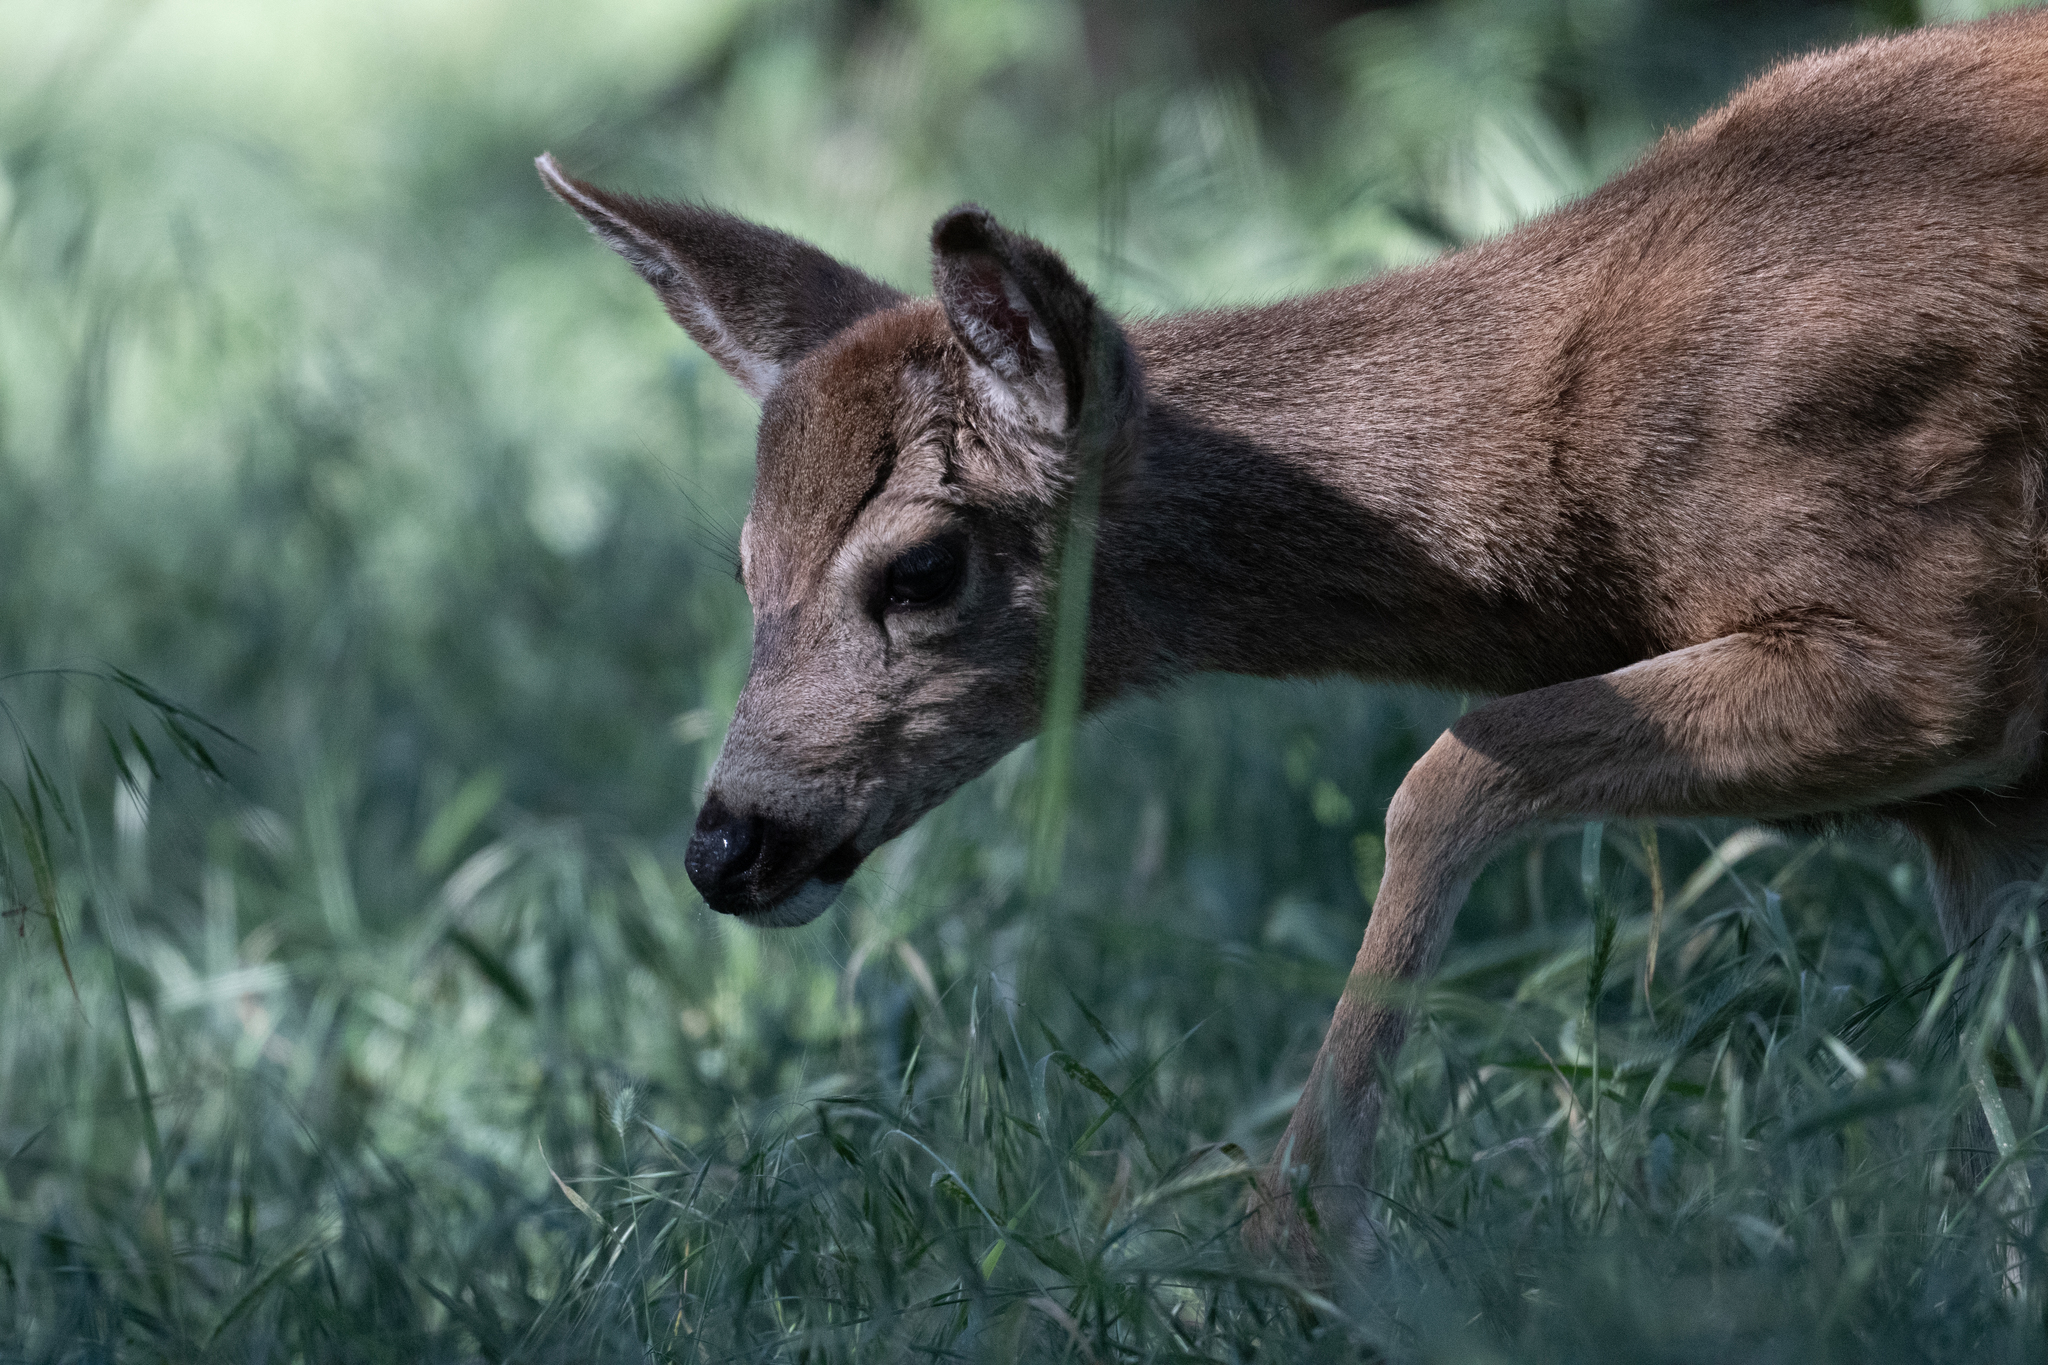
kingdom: Animalia
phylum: Chordata
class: Mammalia
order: Artiodactyla
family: Cervidae
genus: Odocoileus
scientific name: Odocoileus hemionus
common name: Mule deer
